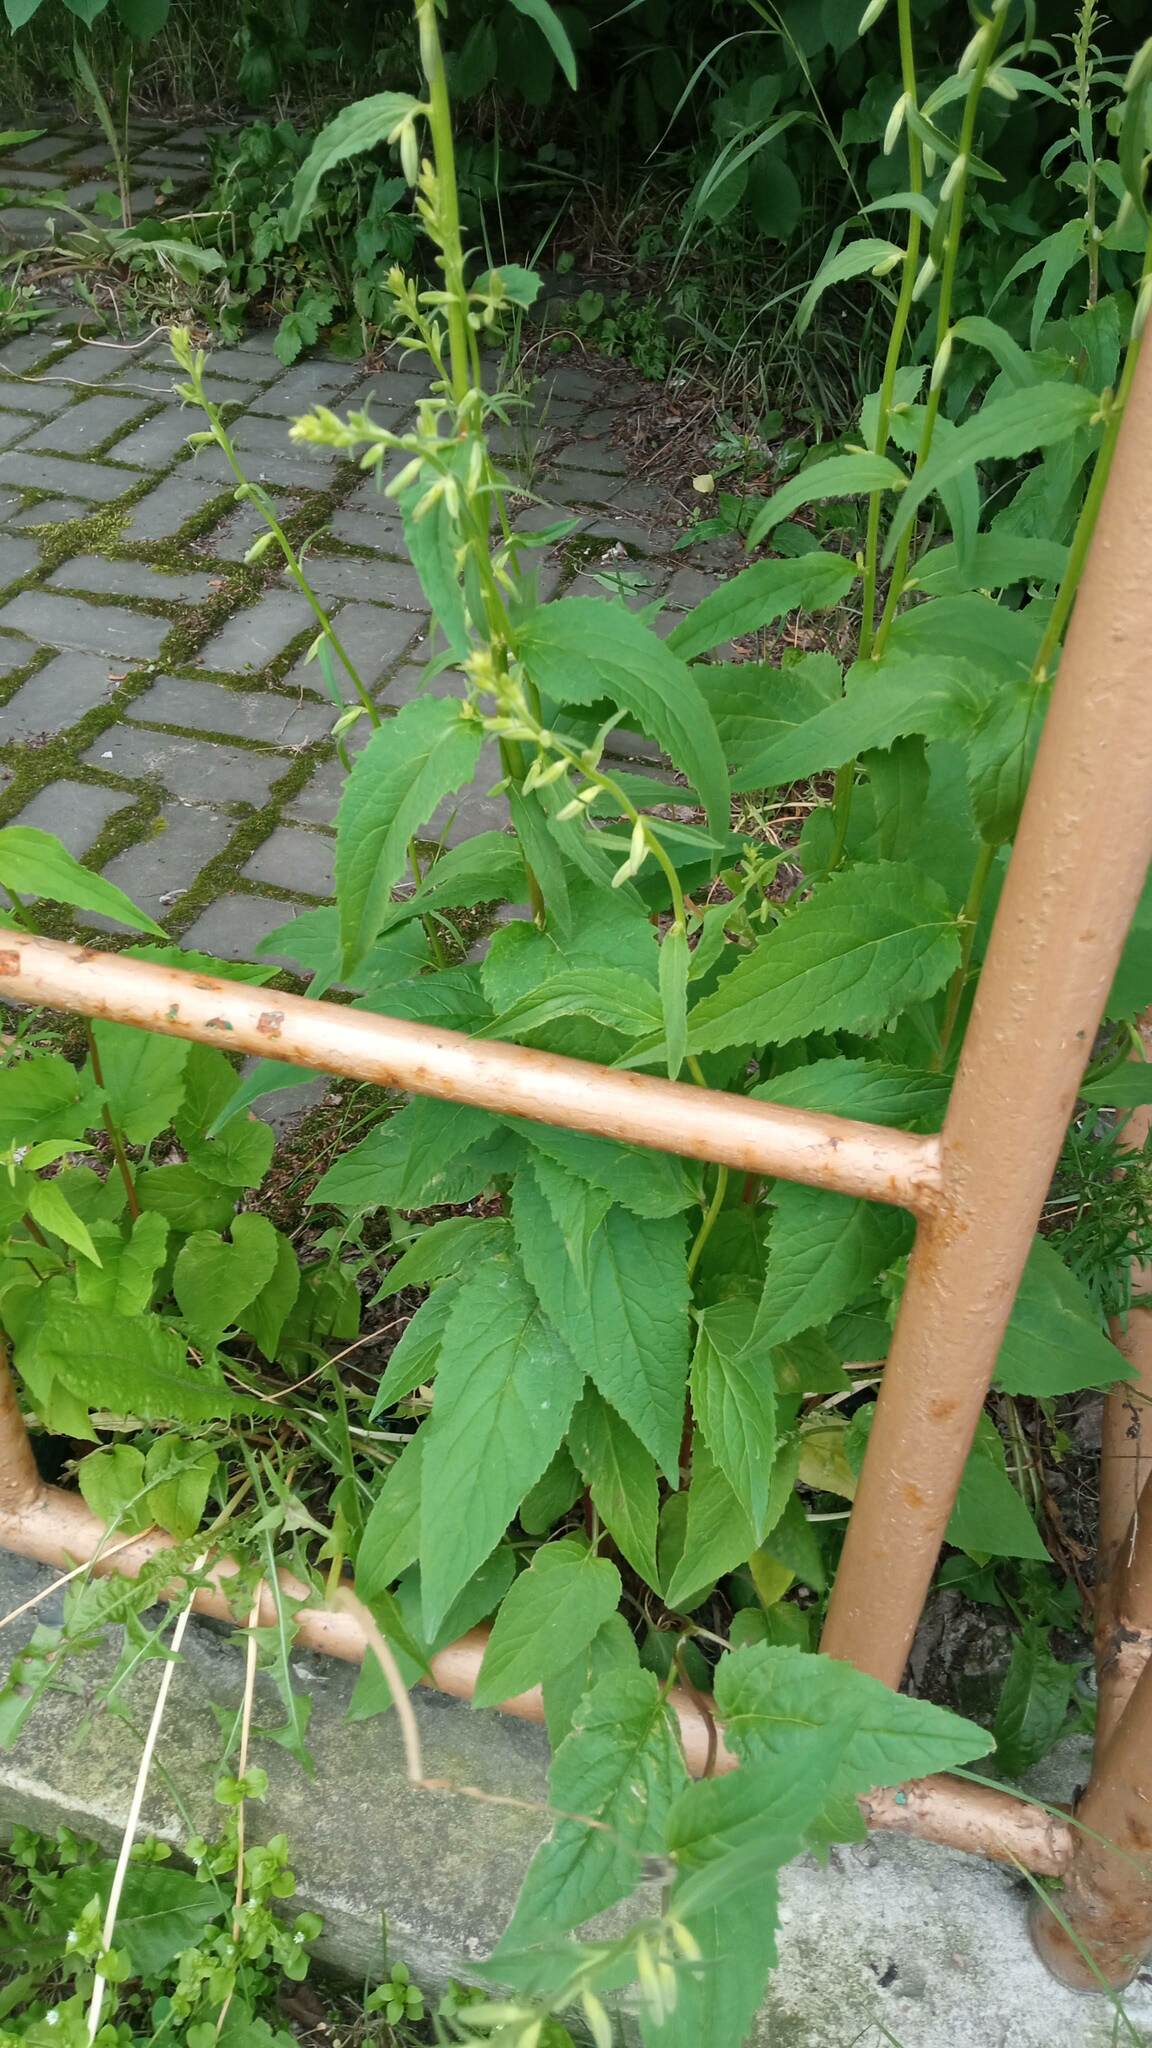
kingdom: Plantae
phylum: Tracheophyta
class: Magnoliopsida
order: Asterales
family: Campanulaceae
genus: Campanula
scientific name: Campanula rapunculoides
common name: Creeping bellflower
